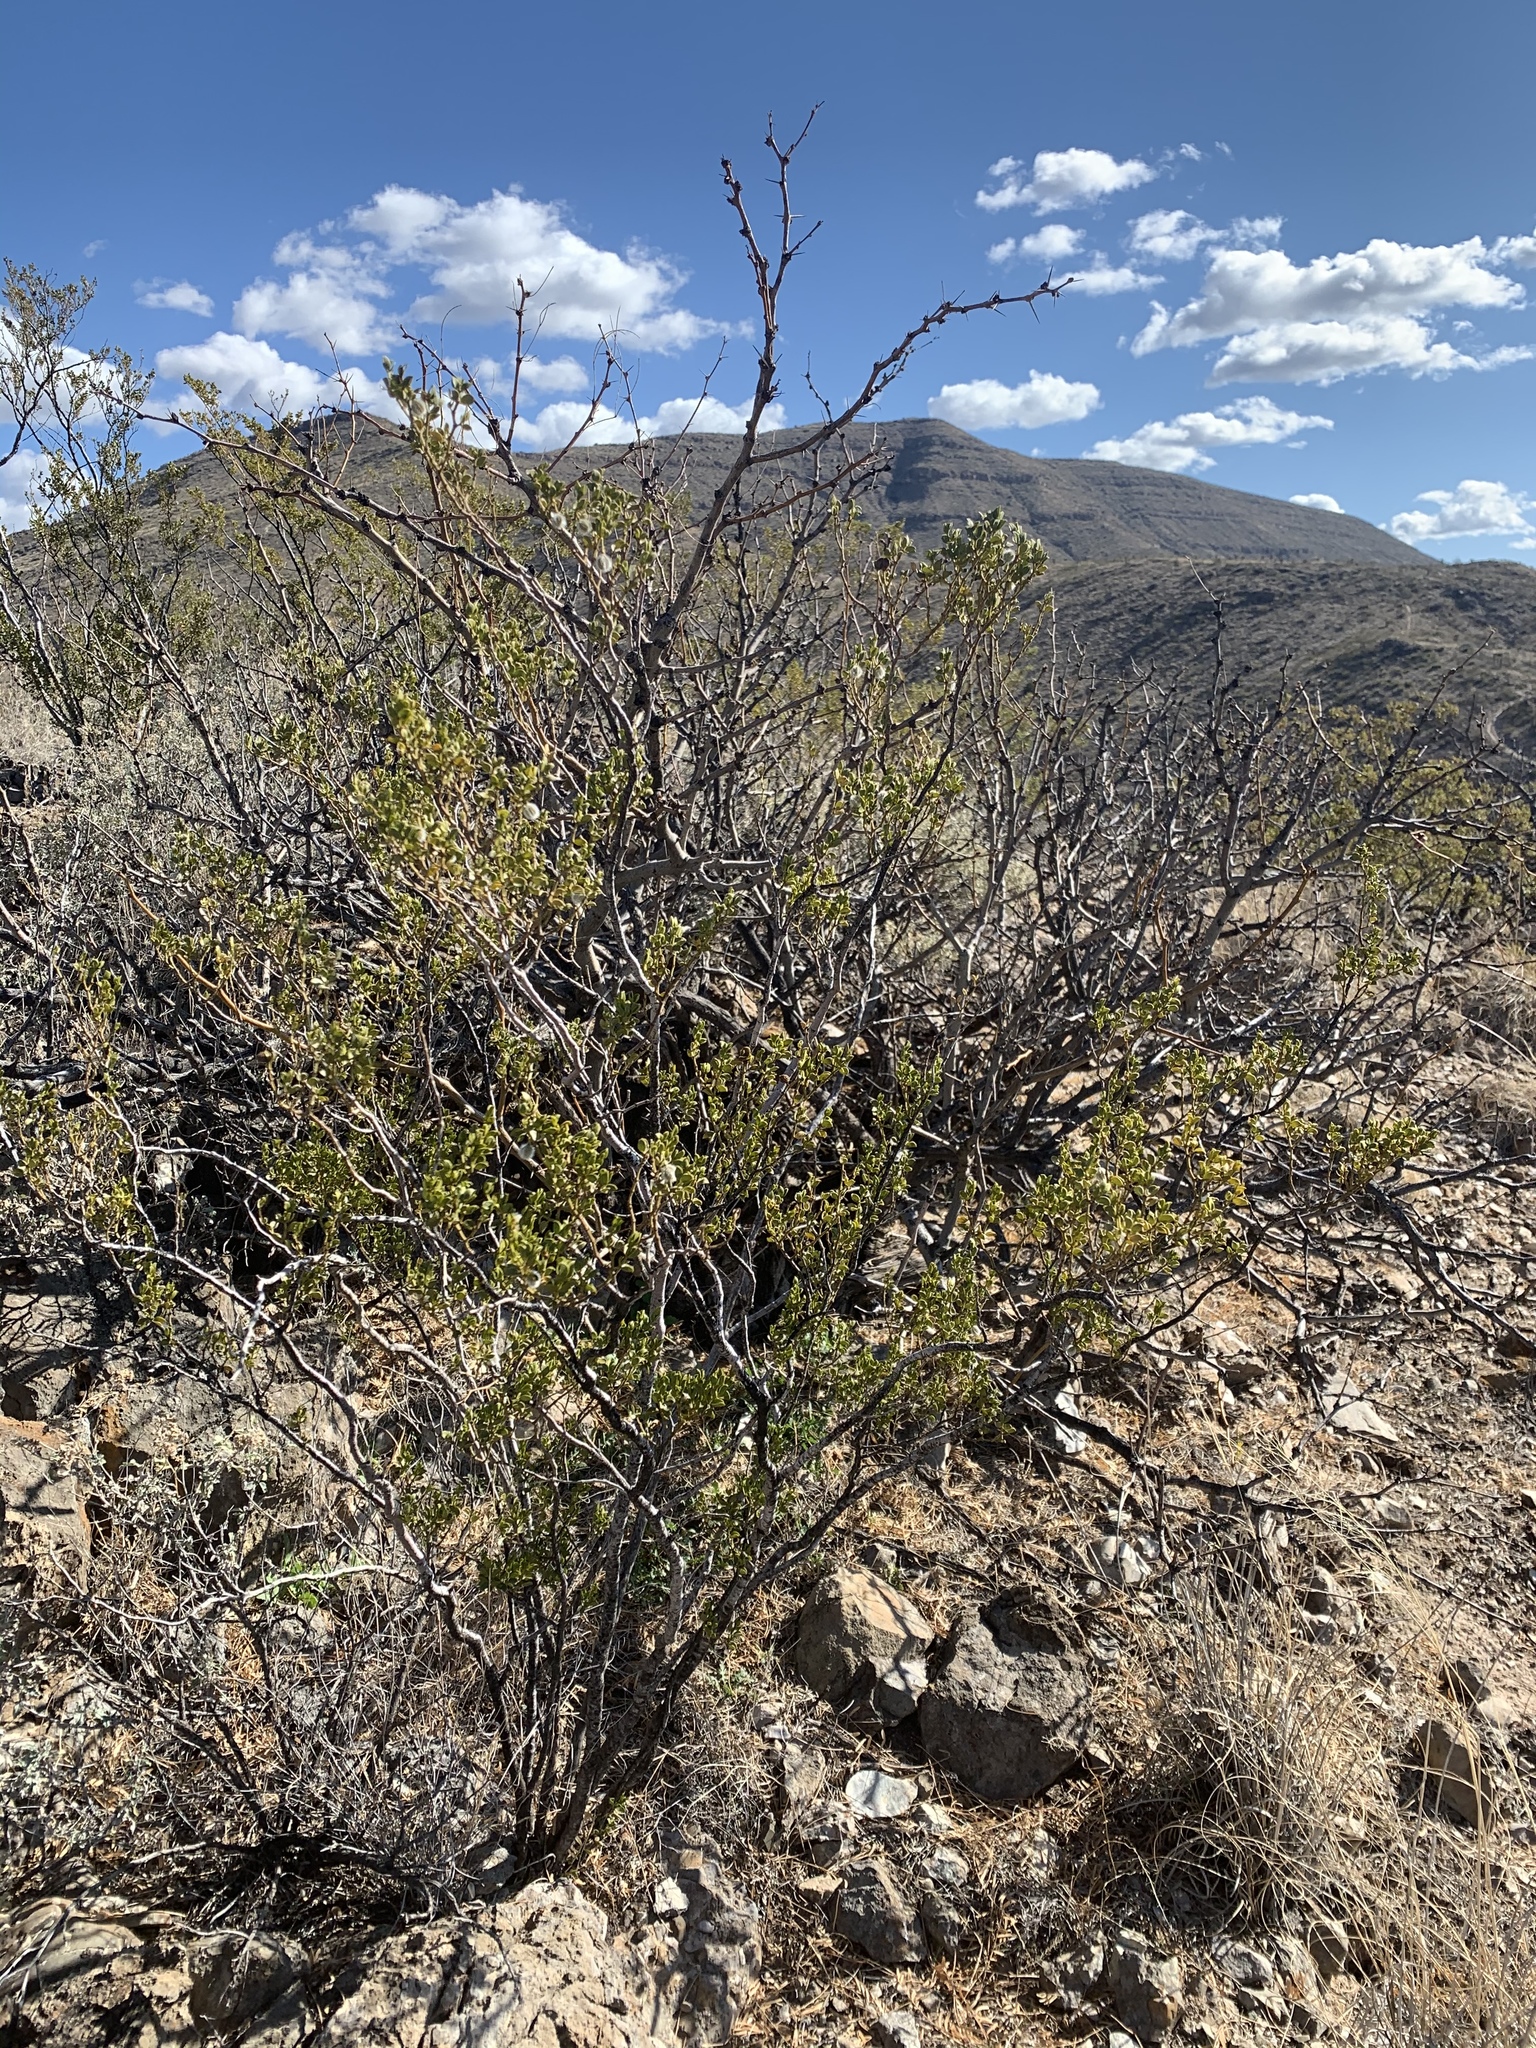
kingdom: Plantae
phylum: Tracheophyta
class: Magnoliopsida
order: Zygophyllales
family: Zygophyllaceae
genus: Larrea
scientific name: Larrea tridentata
